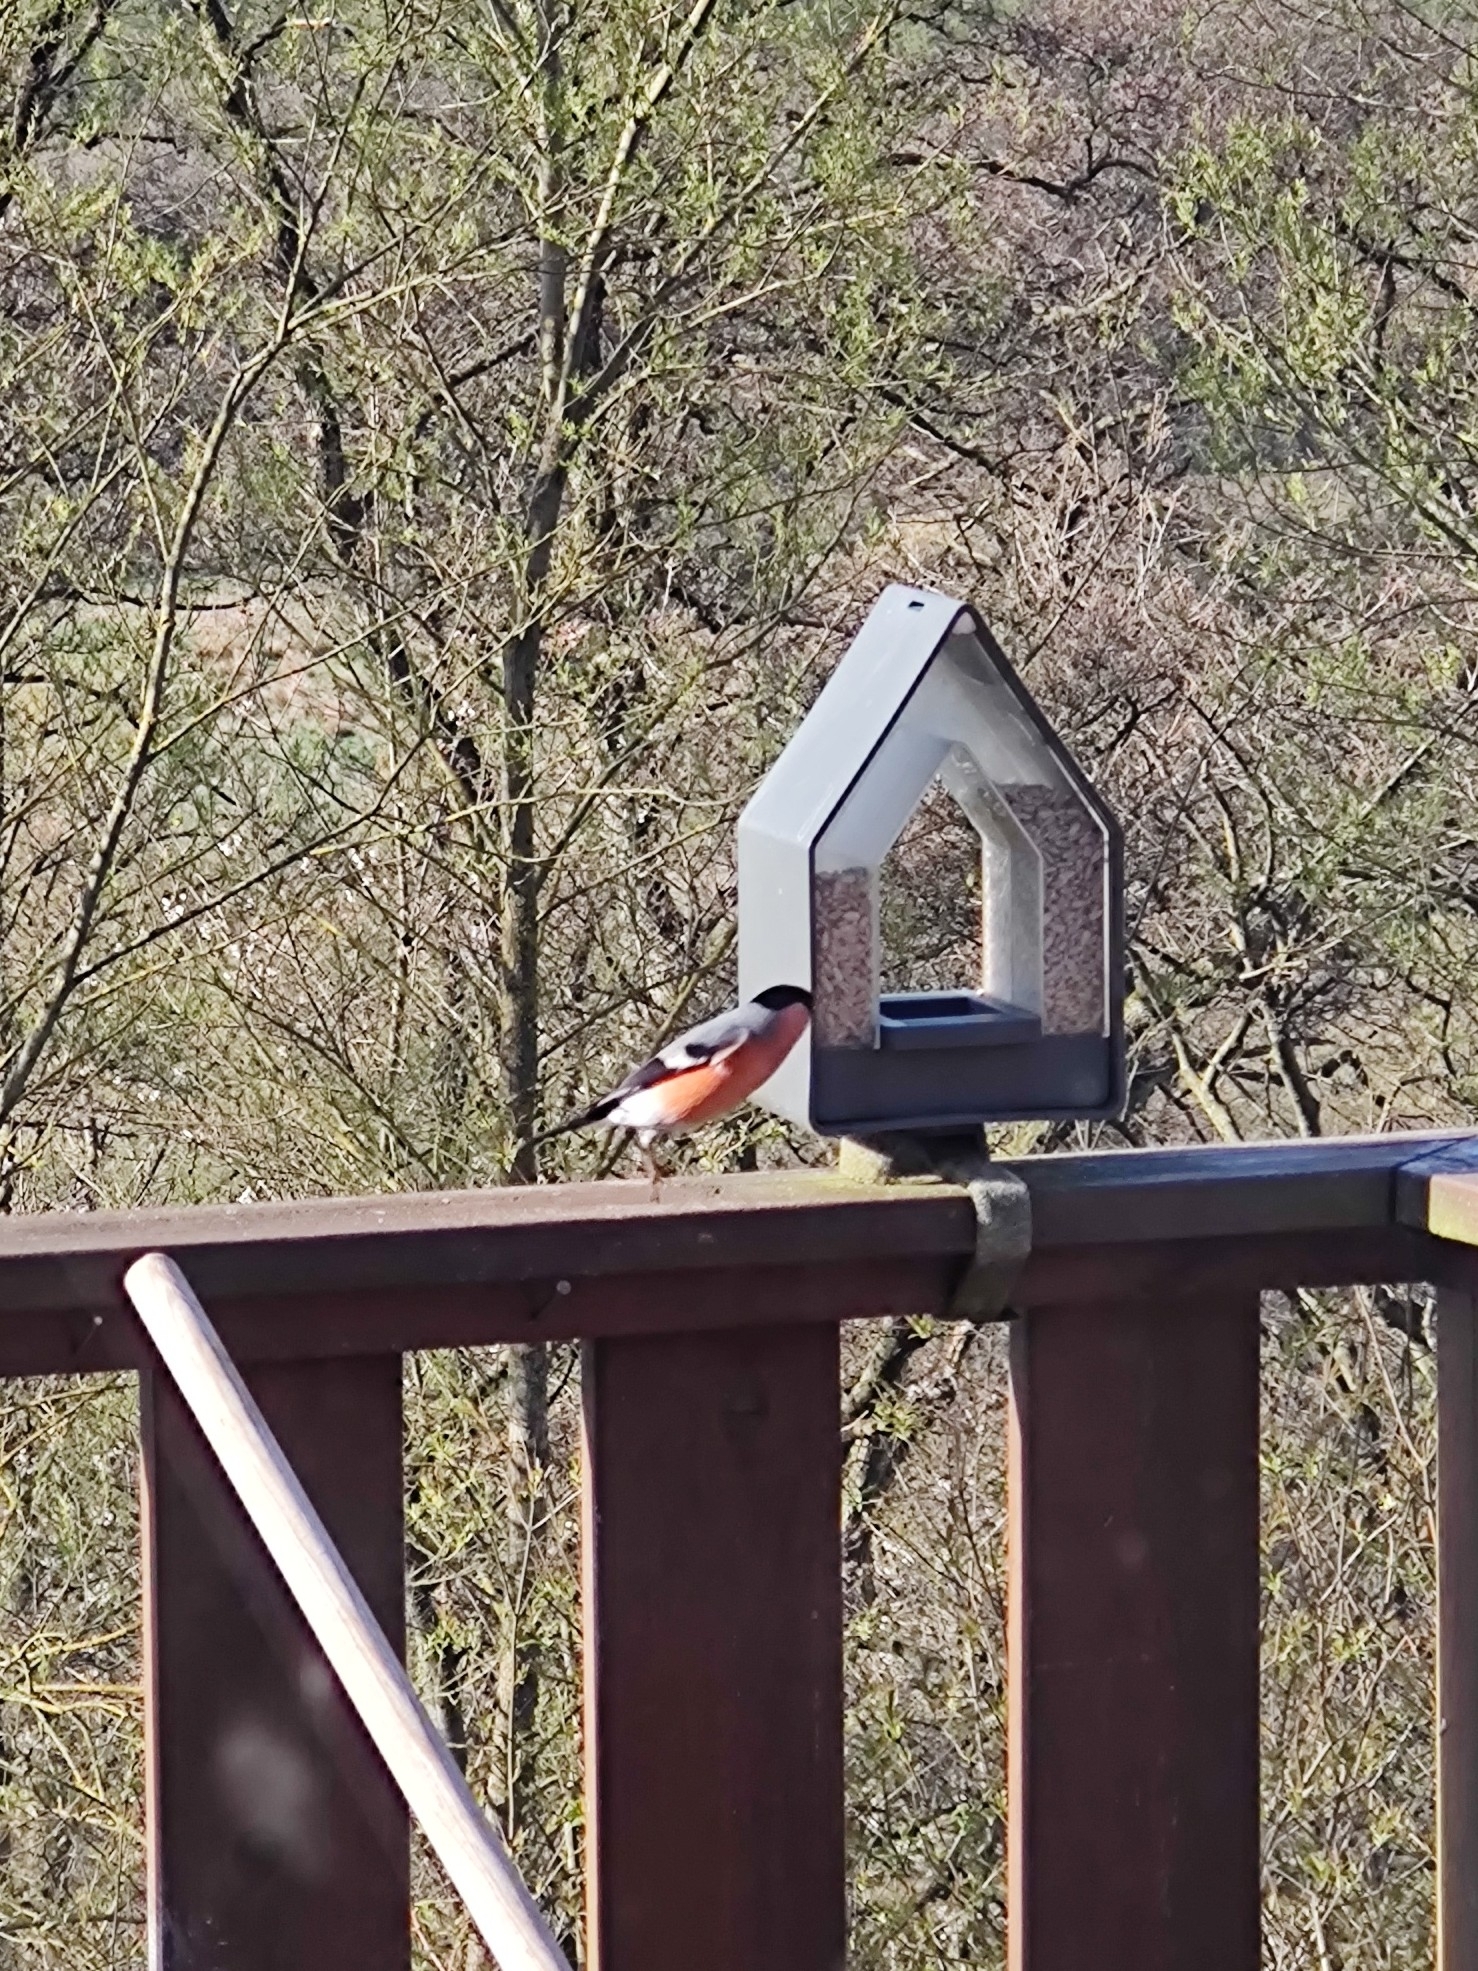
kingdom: Animalia
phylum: Chordata
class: Aves
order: Passeriformes
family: Fringillidae
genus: Pyrrhula
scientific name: Pyrrhula pyrrhula
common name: Eurasian bullfinch
